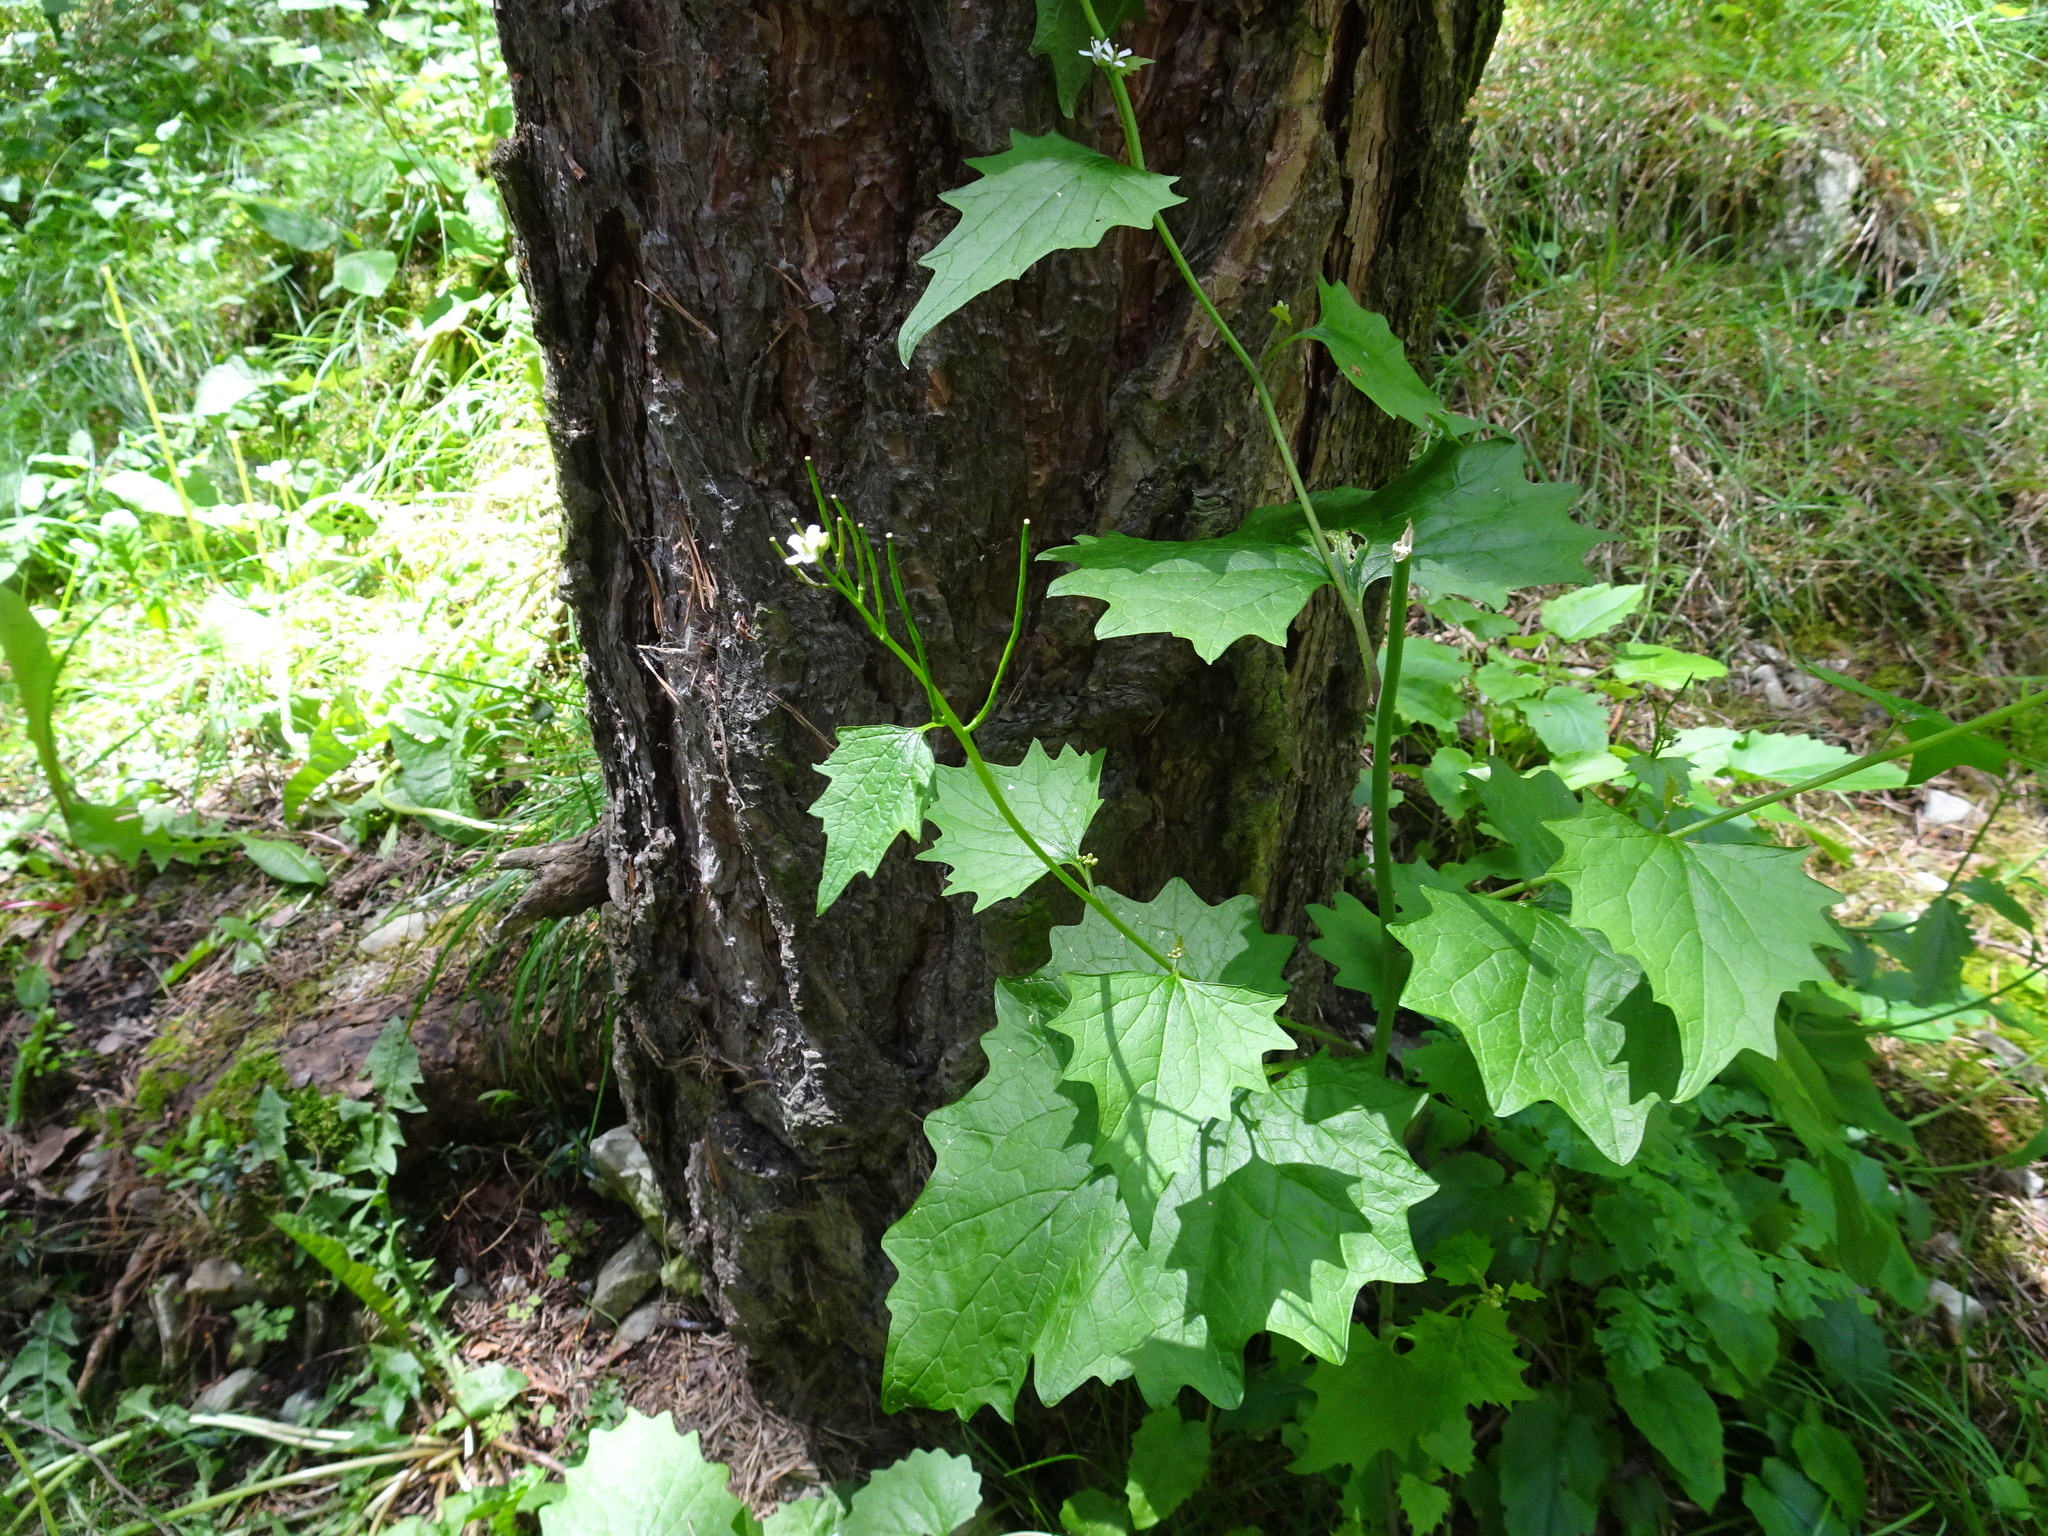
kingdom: Plantae
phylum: Tracheophyta
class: Magnoliopsida
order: Brassicales
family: Brassicaceae
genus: Alliaria
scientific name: Alliaria petiolata
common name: Garlic mustard
